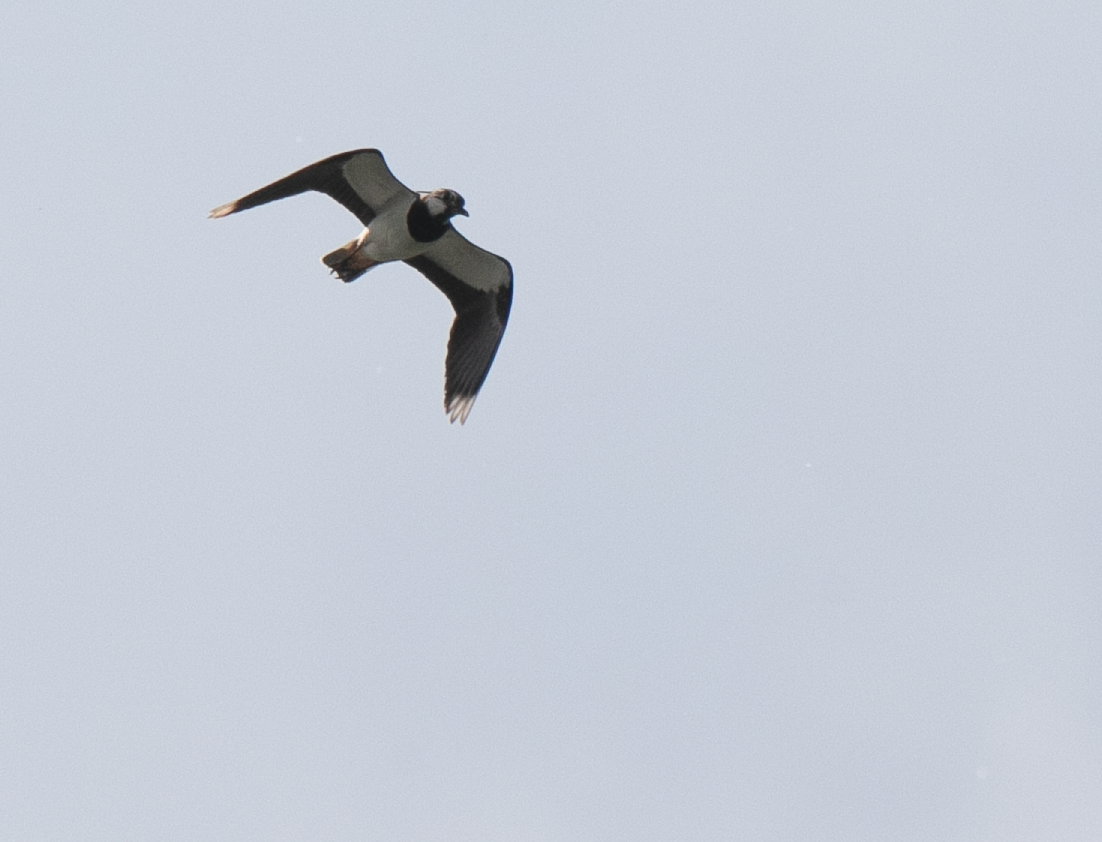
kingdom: Animalia
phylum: Chordata
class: Aves
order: Charadriiformes
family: Charadriidae
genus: Vanellus
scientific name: Vanellus vanellus
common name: Northern lapwing
